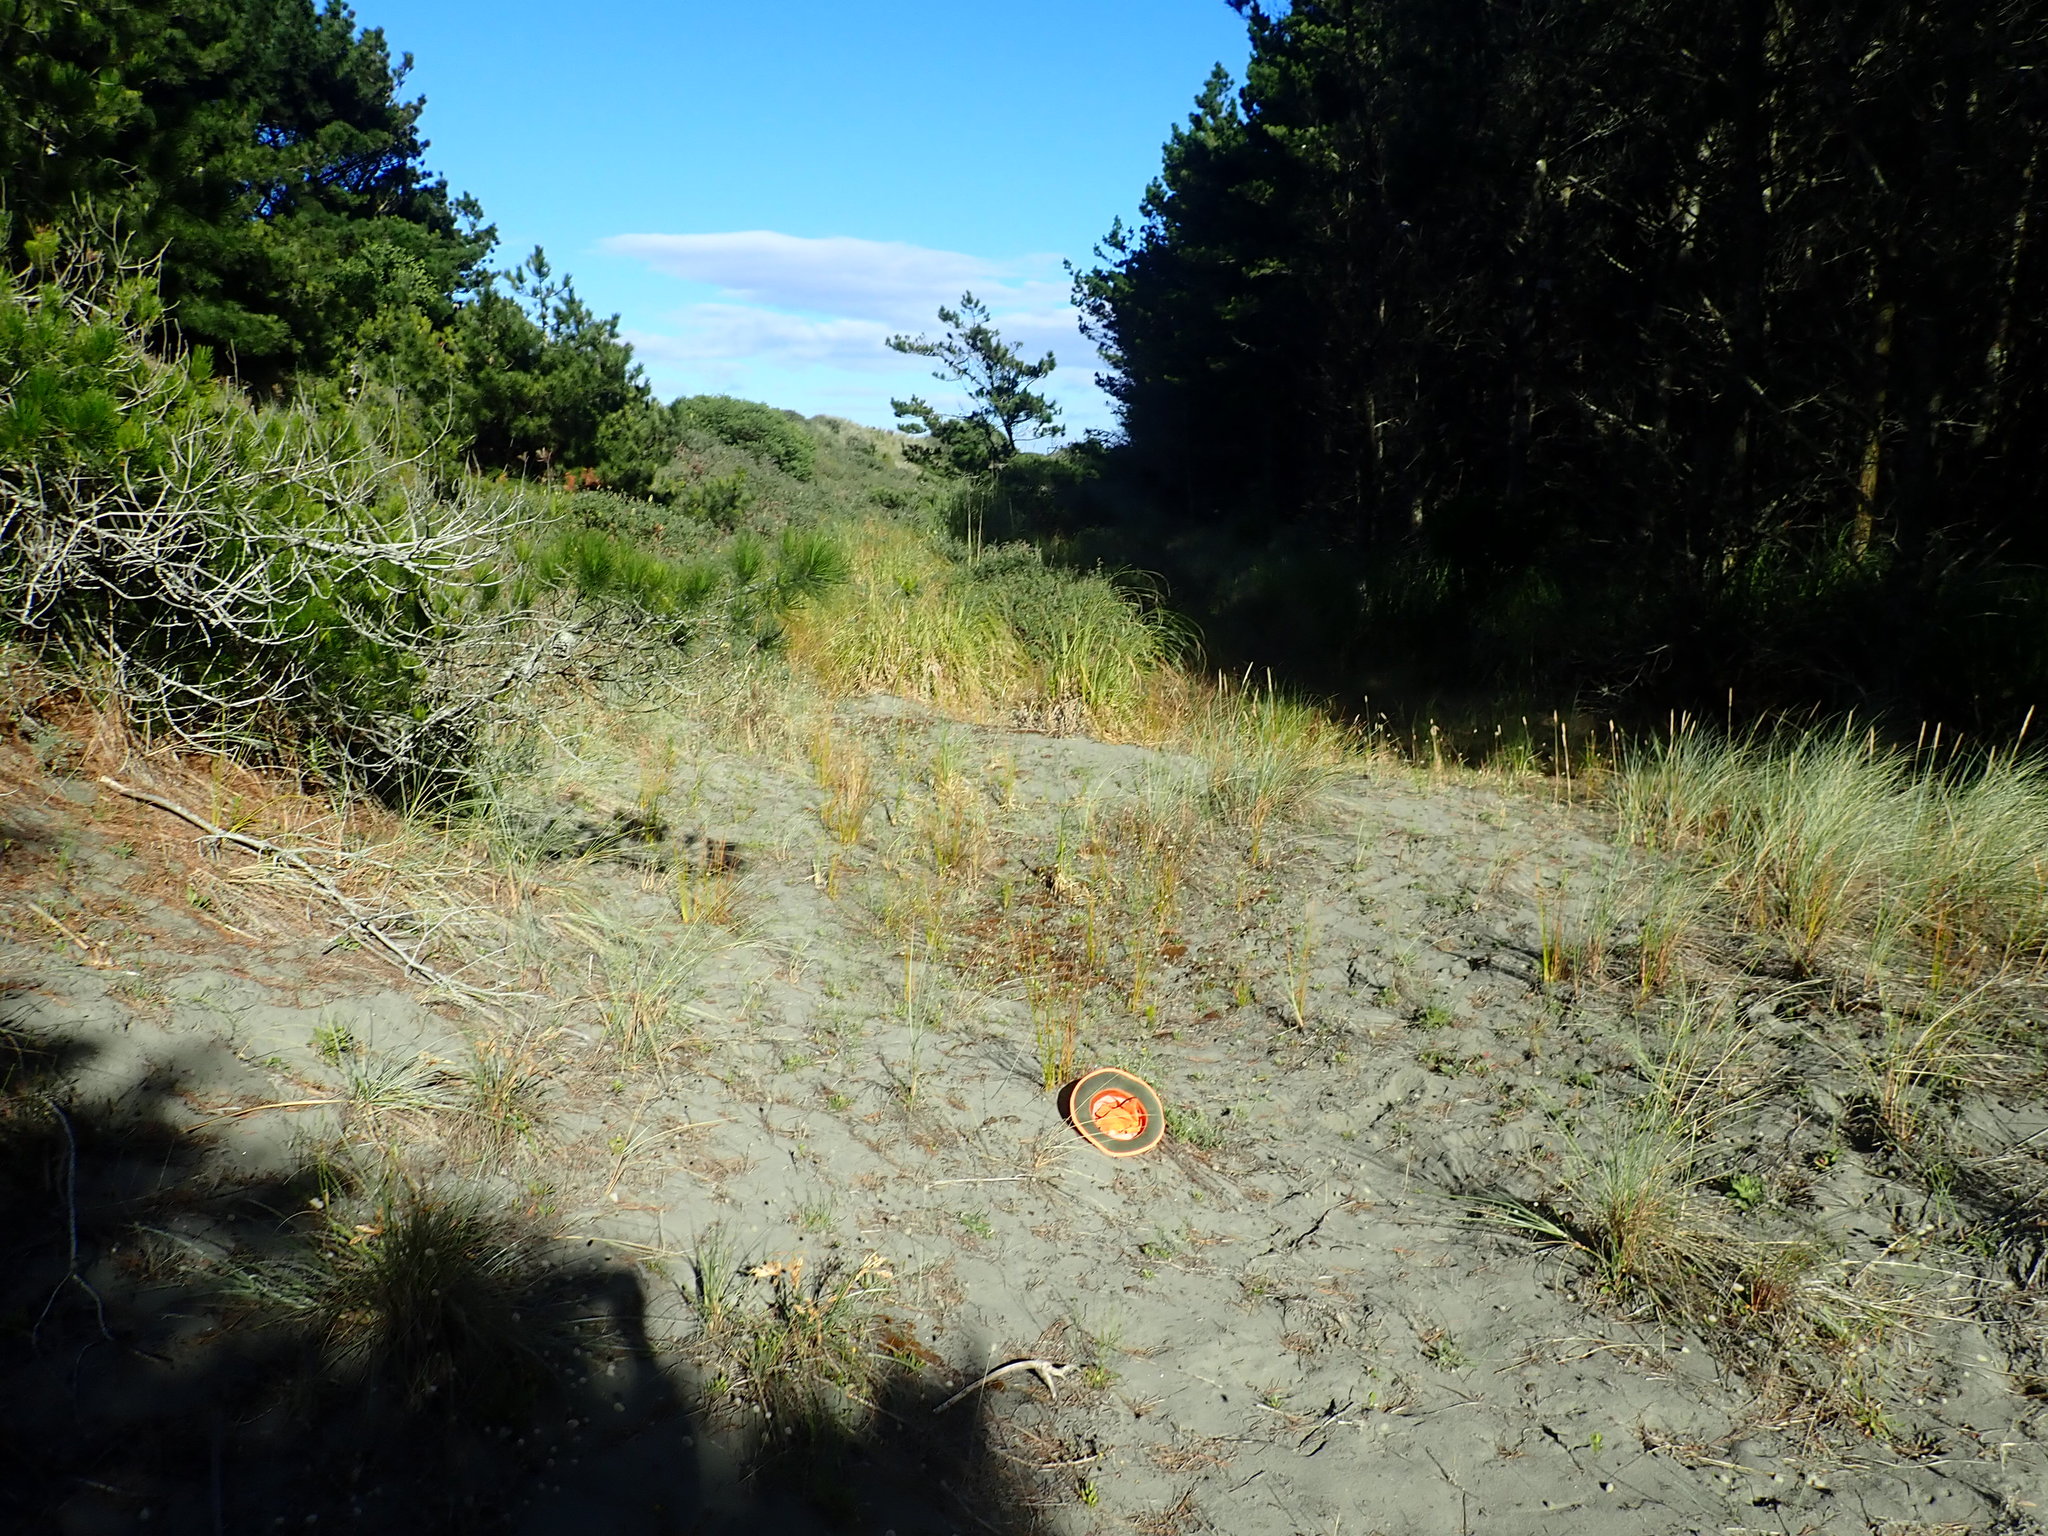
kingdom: Plantae
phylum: Tracheophyta
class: Magnoliopsida
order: Malvales
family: Thymelaeaceae
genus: Pimelea
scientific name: Pimelea villosa
